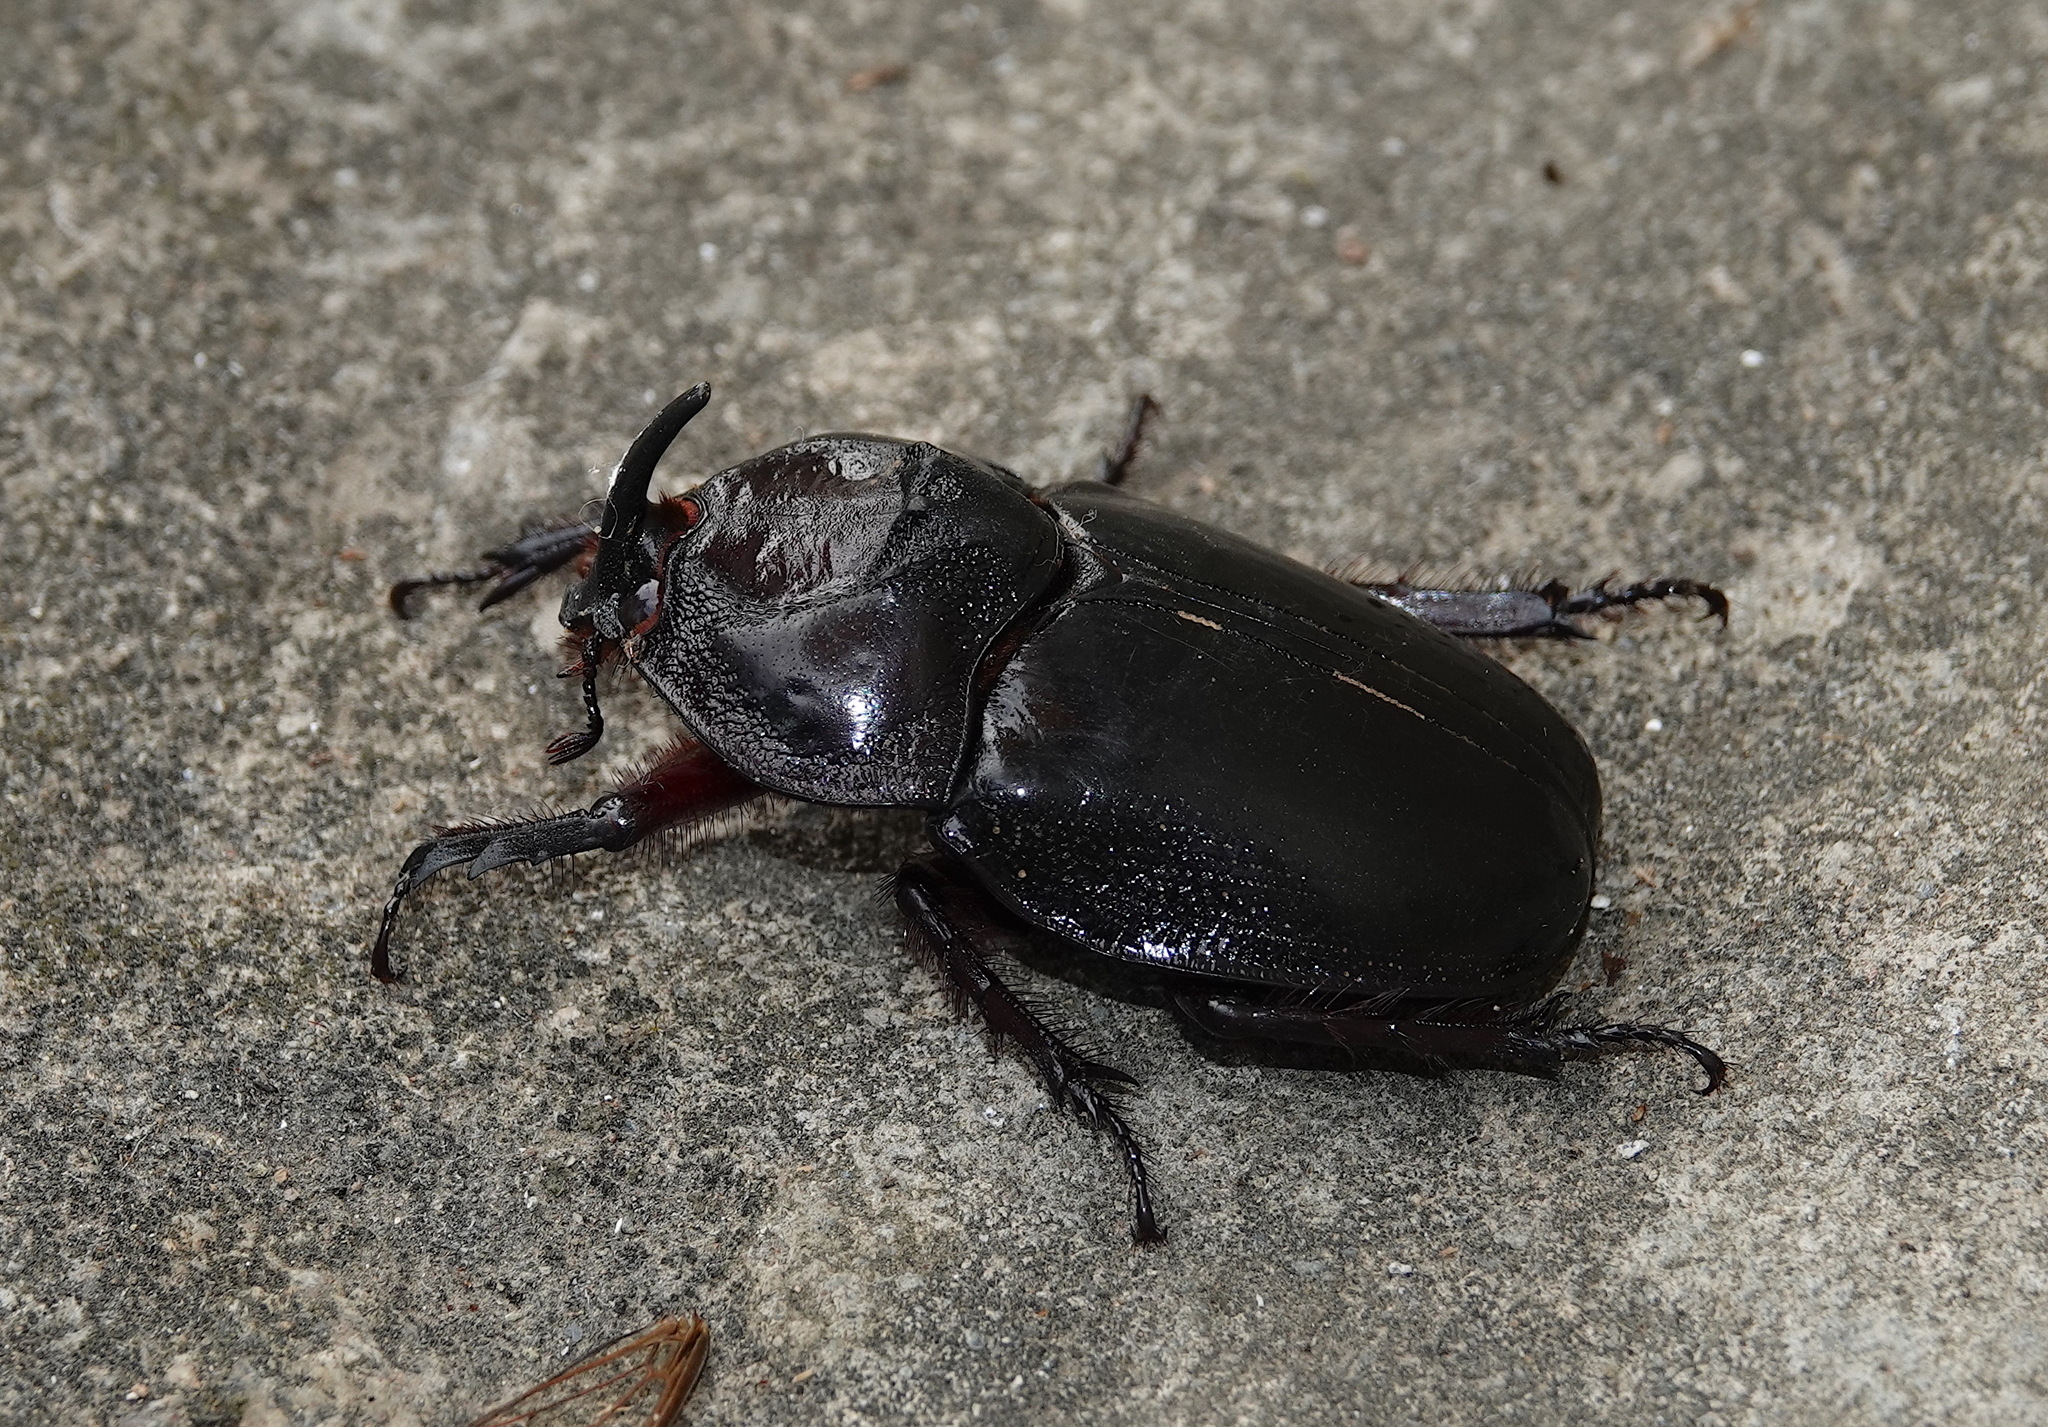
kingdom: Animalia
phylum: Arthropoda
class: Insecta
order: Coleoptera
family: Scarabaeidae
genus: Enema
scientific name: Enema pan
